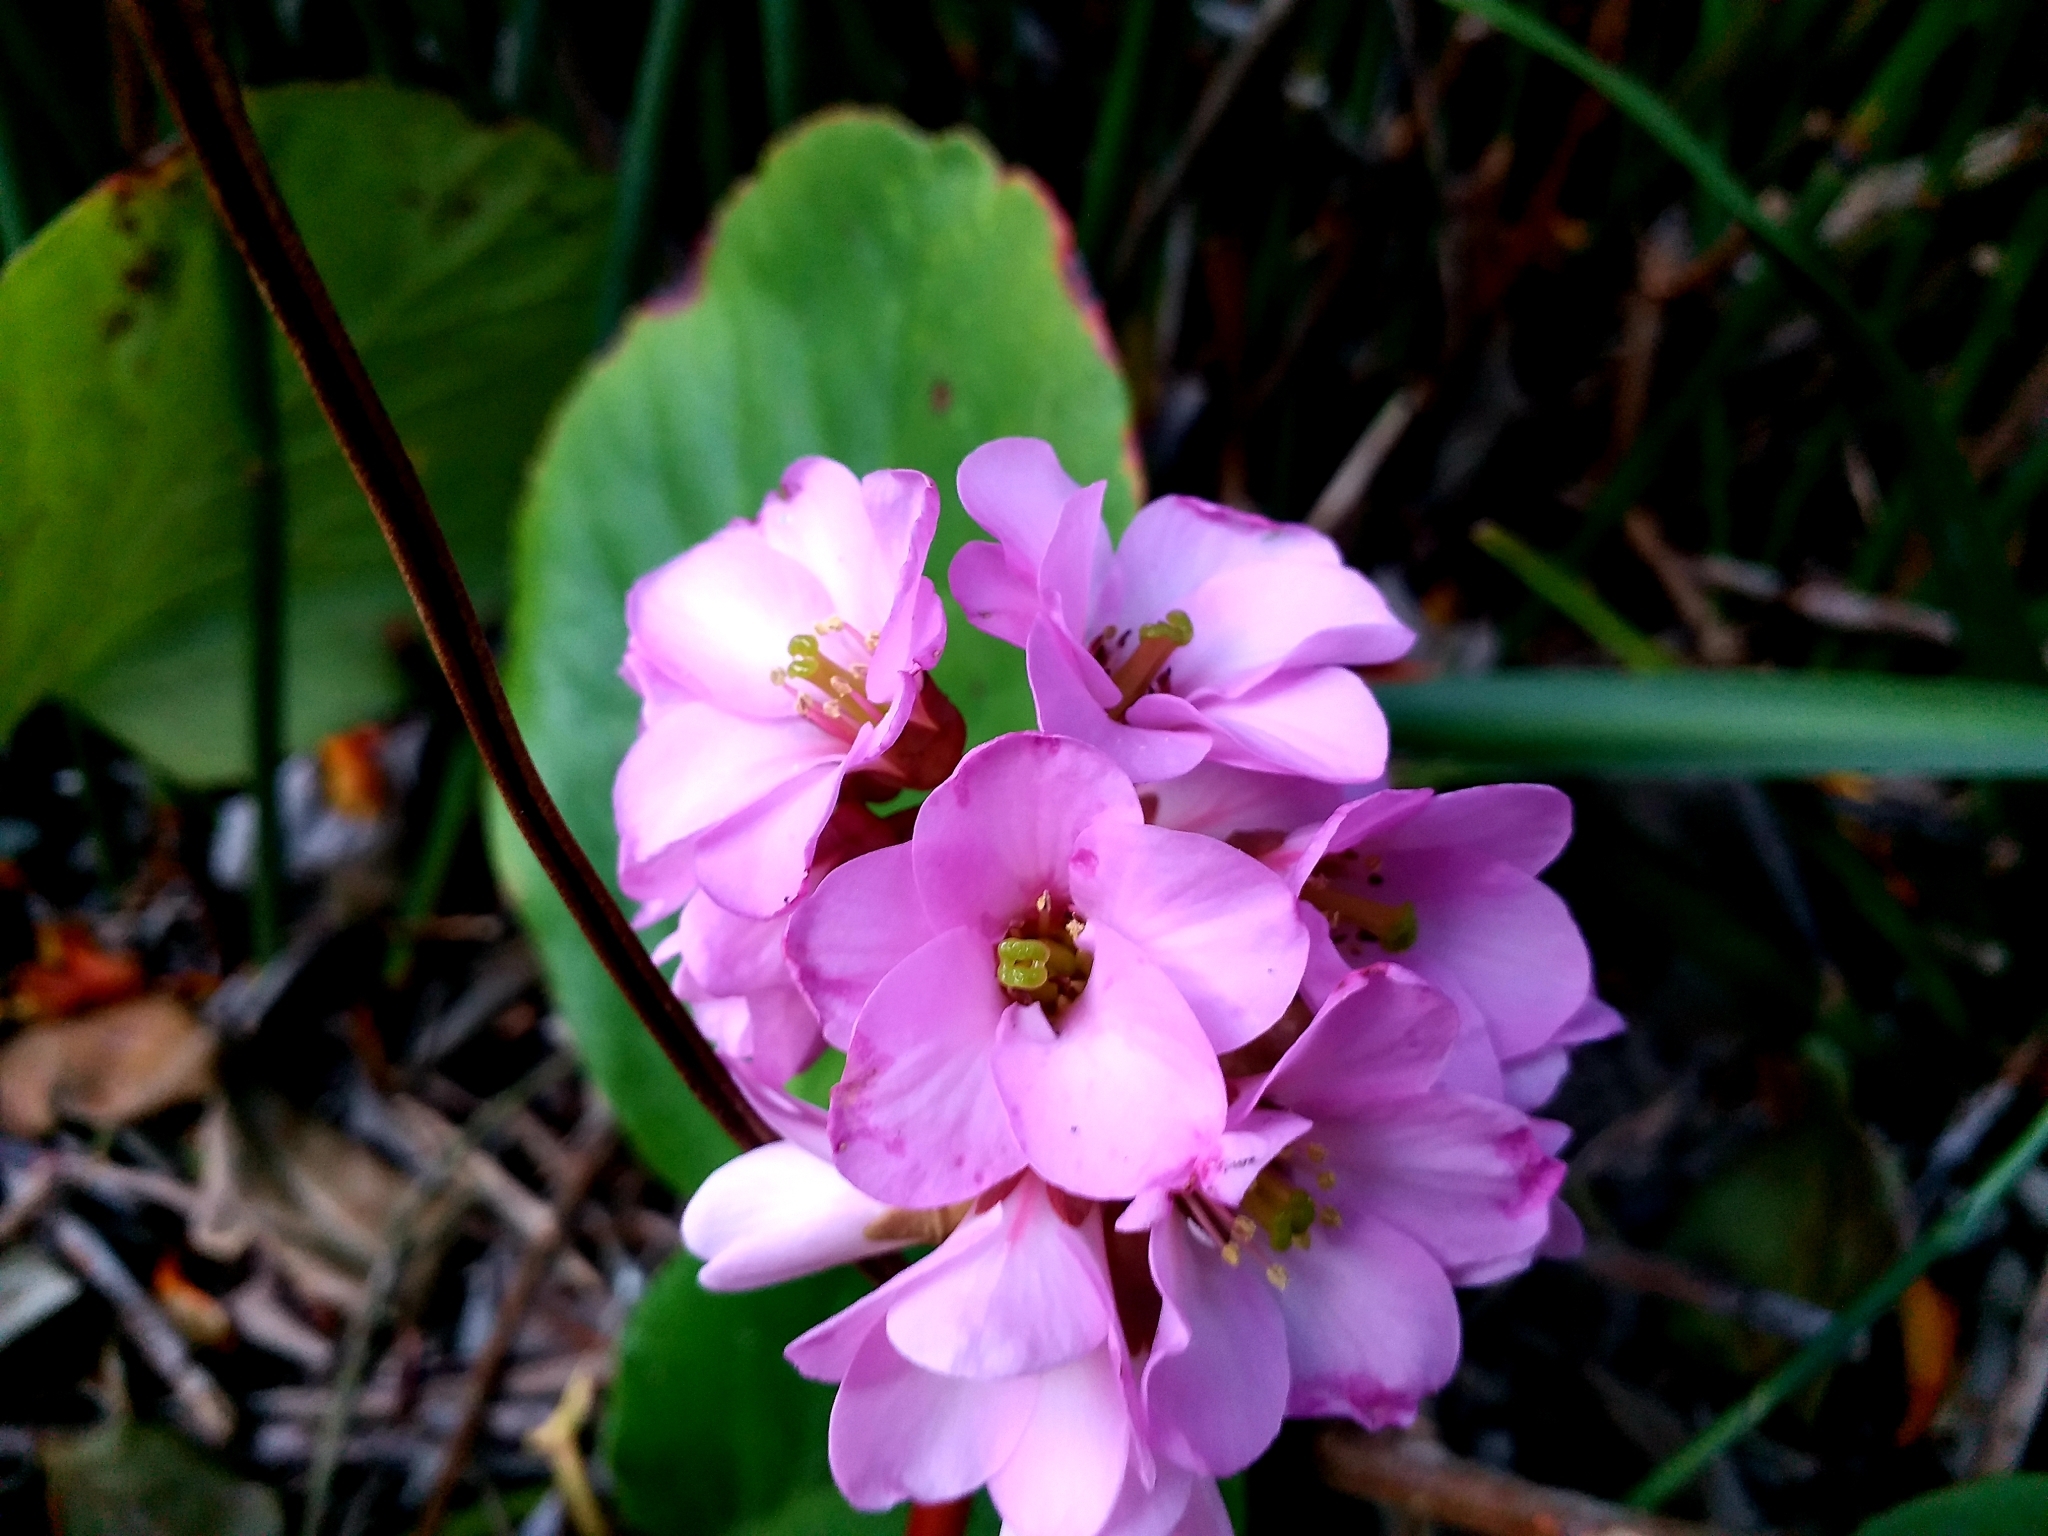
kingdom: Plantae
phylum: Tracheophyta
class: Magnoliopsida
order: Saxifragales
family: Saxifragaceae
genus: Bergenia
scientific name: Bergenia crassifolia
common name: Elephant-ears
